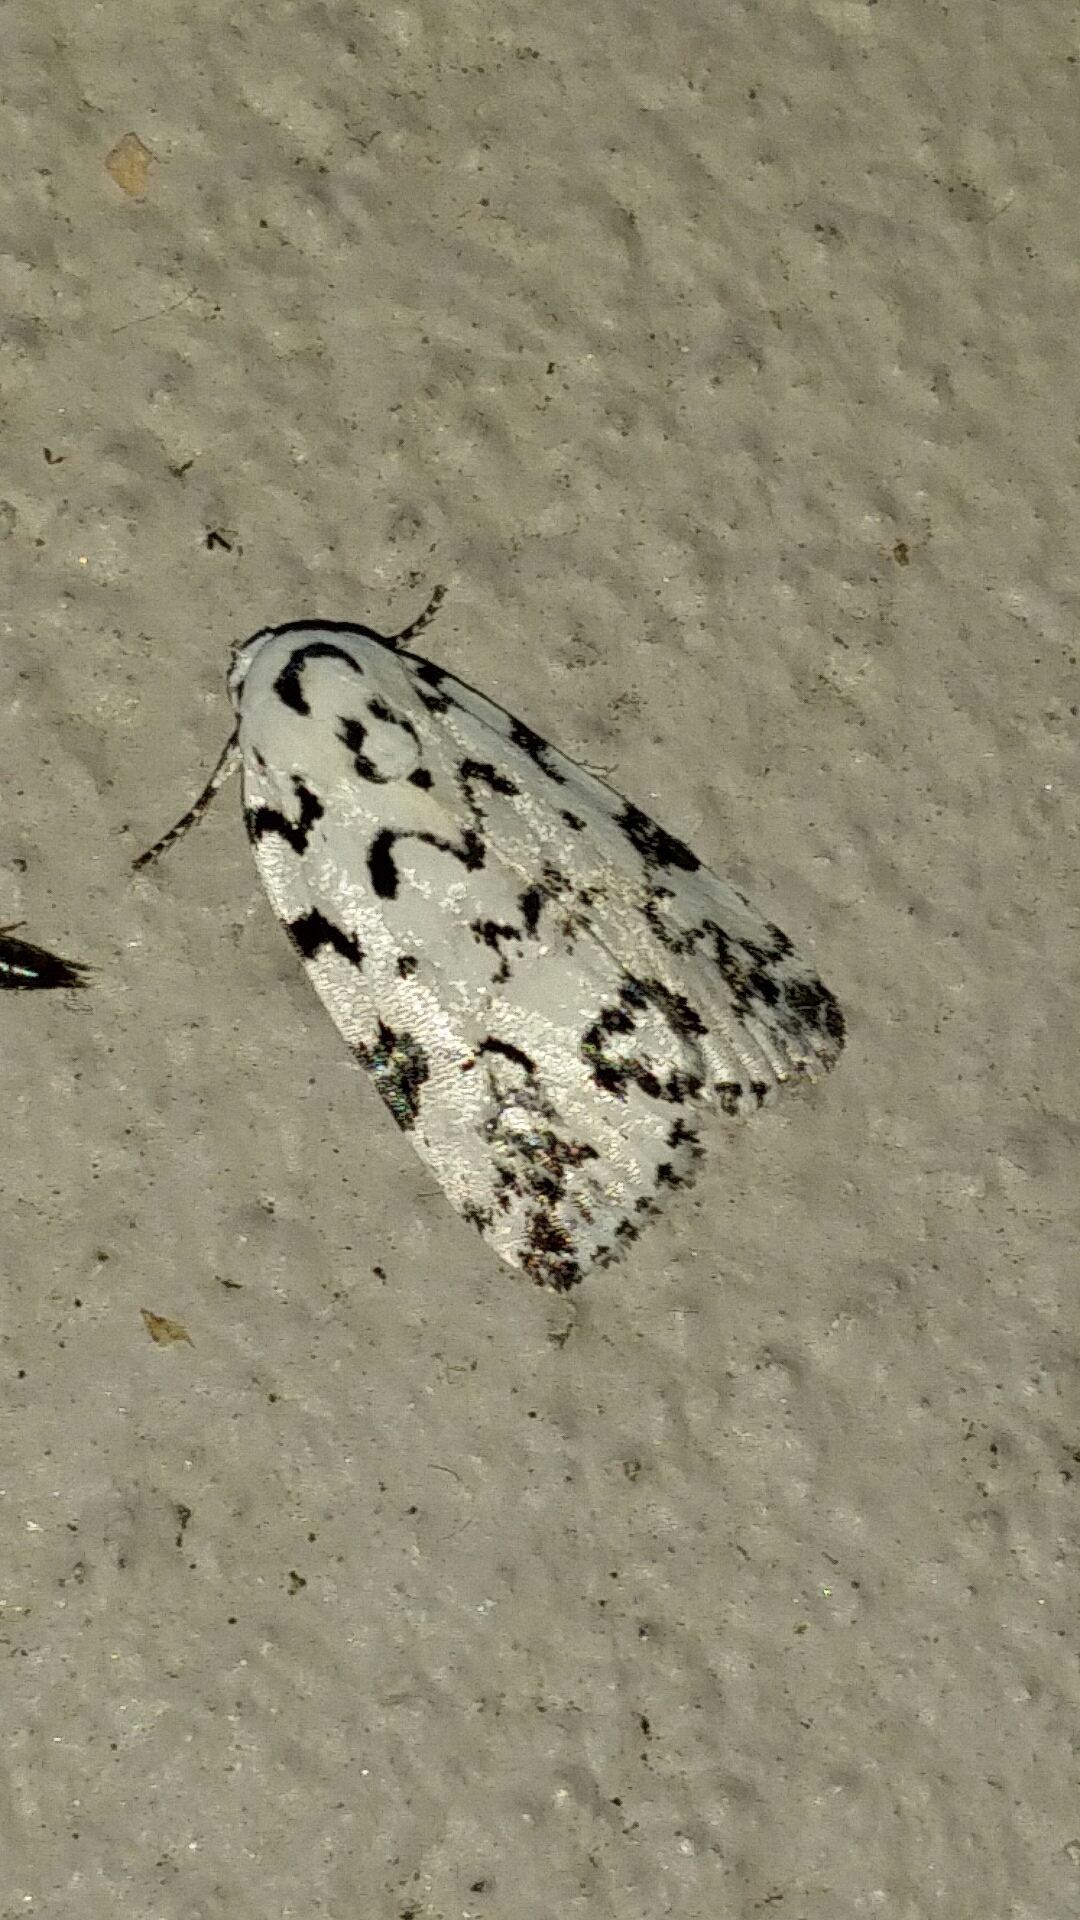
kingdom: Animalia
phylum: Arthropoda
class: Insecta
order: Lepidoptera
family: Noctuidae
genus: Polygrammate
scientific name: Polygrammate hebraeicum
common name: Hebrew moth
